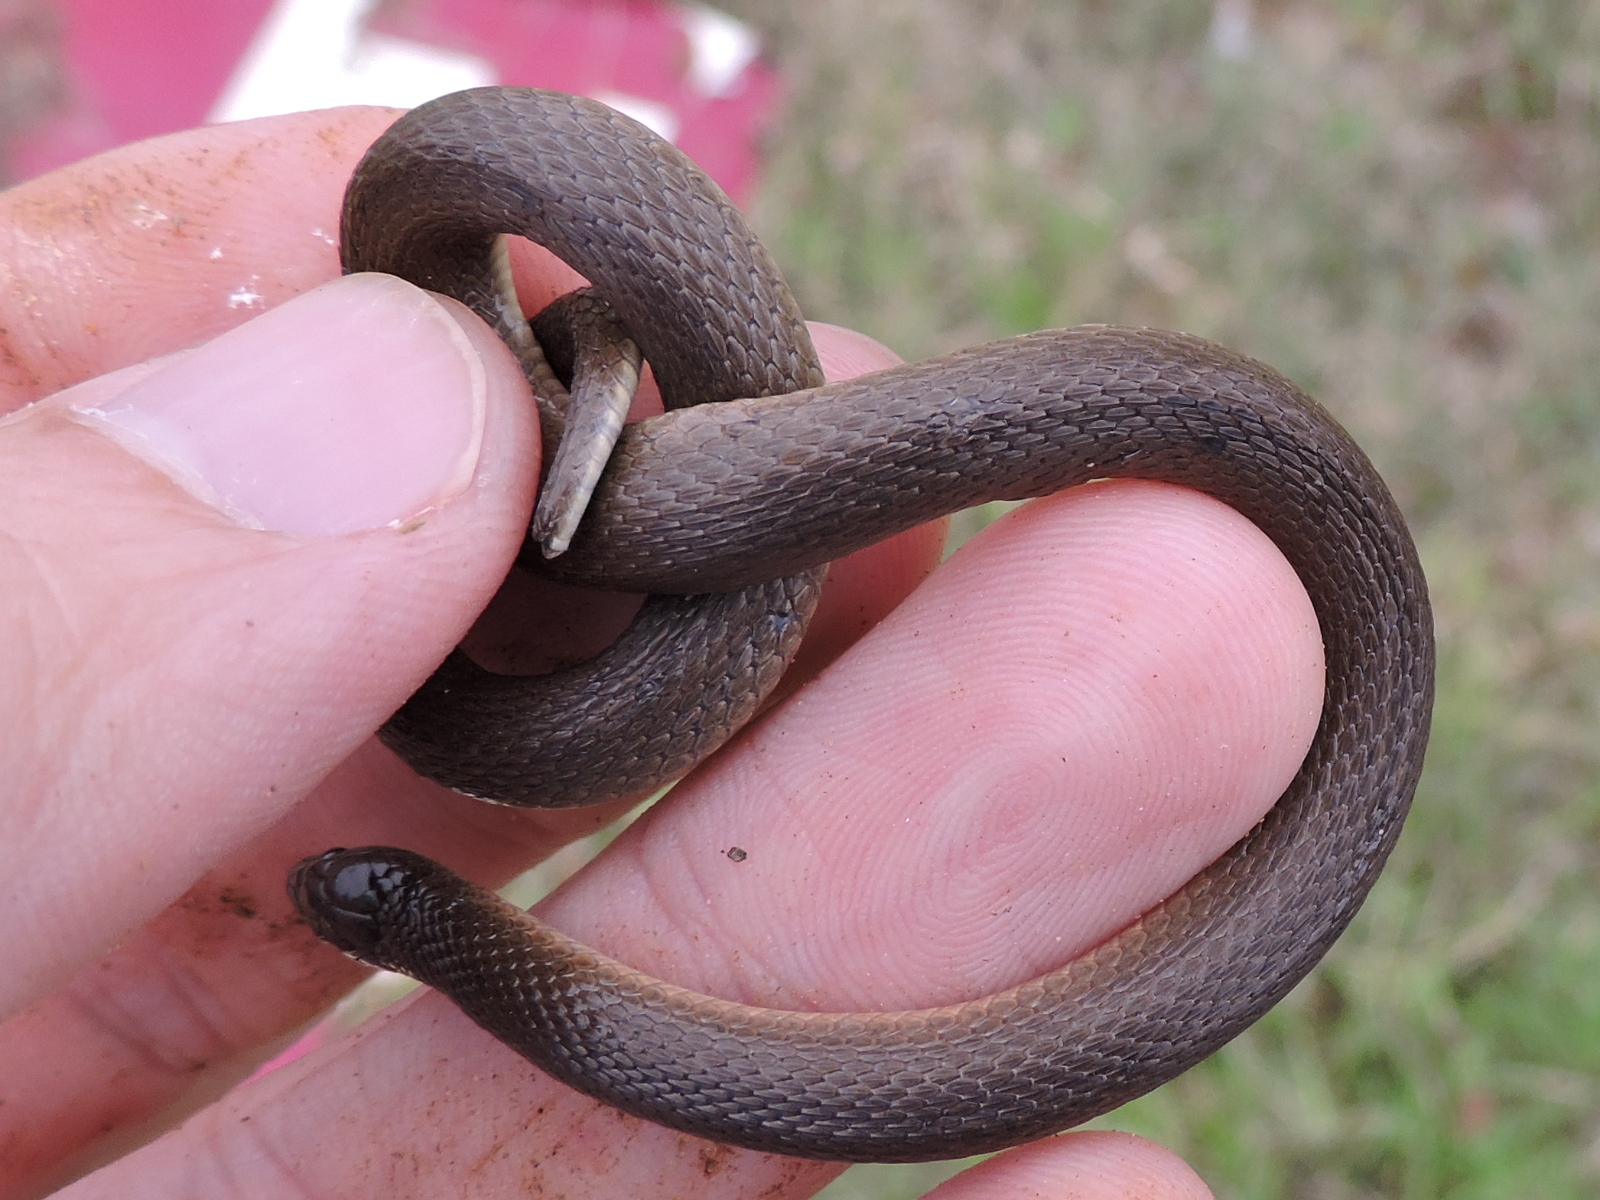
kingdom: Animalia
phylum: Chordata
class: Squamata
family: Colubridae
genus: Haldea
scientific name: Haldea striatula
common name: Rough earth snake
